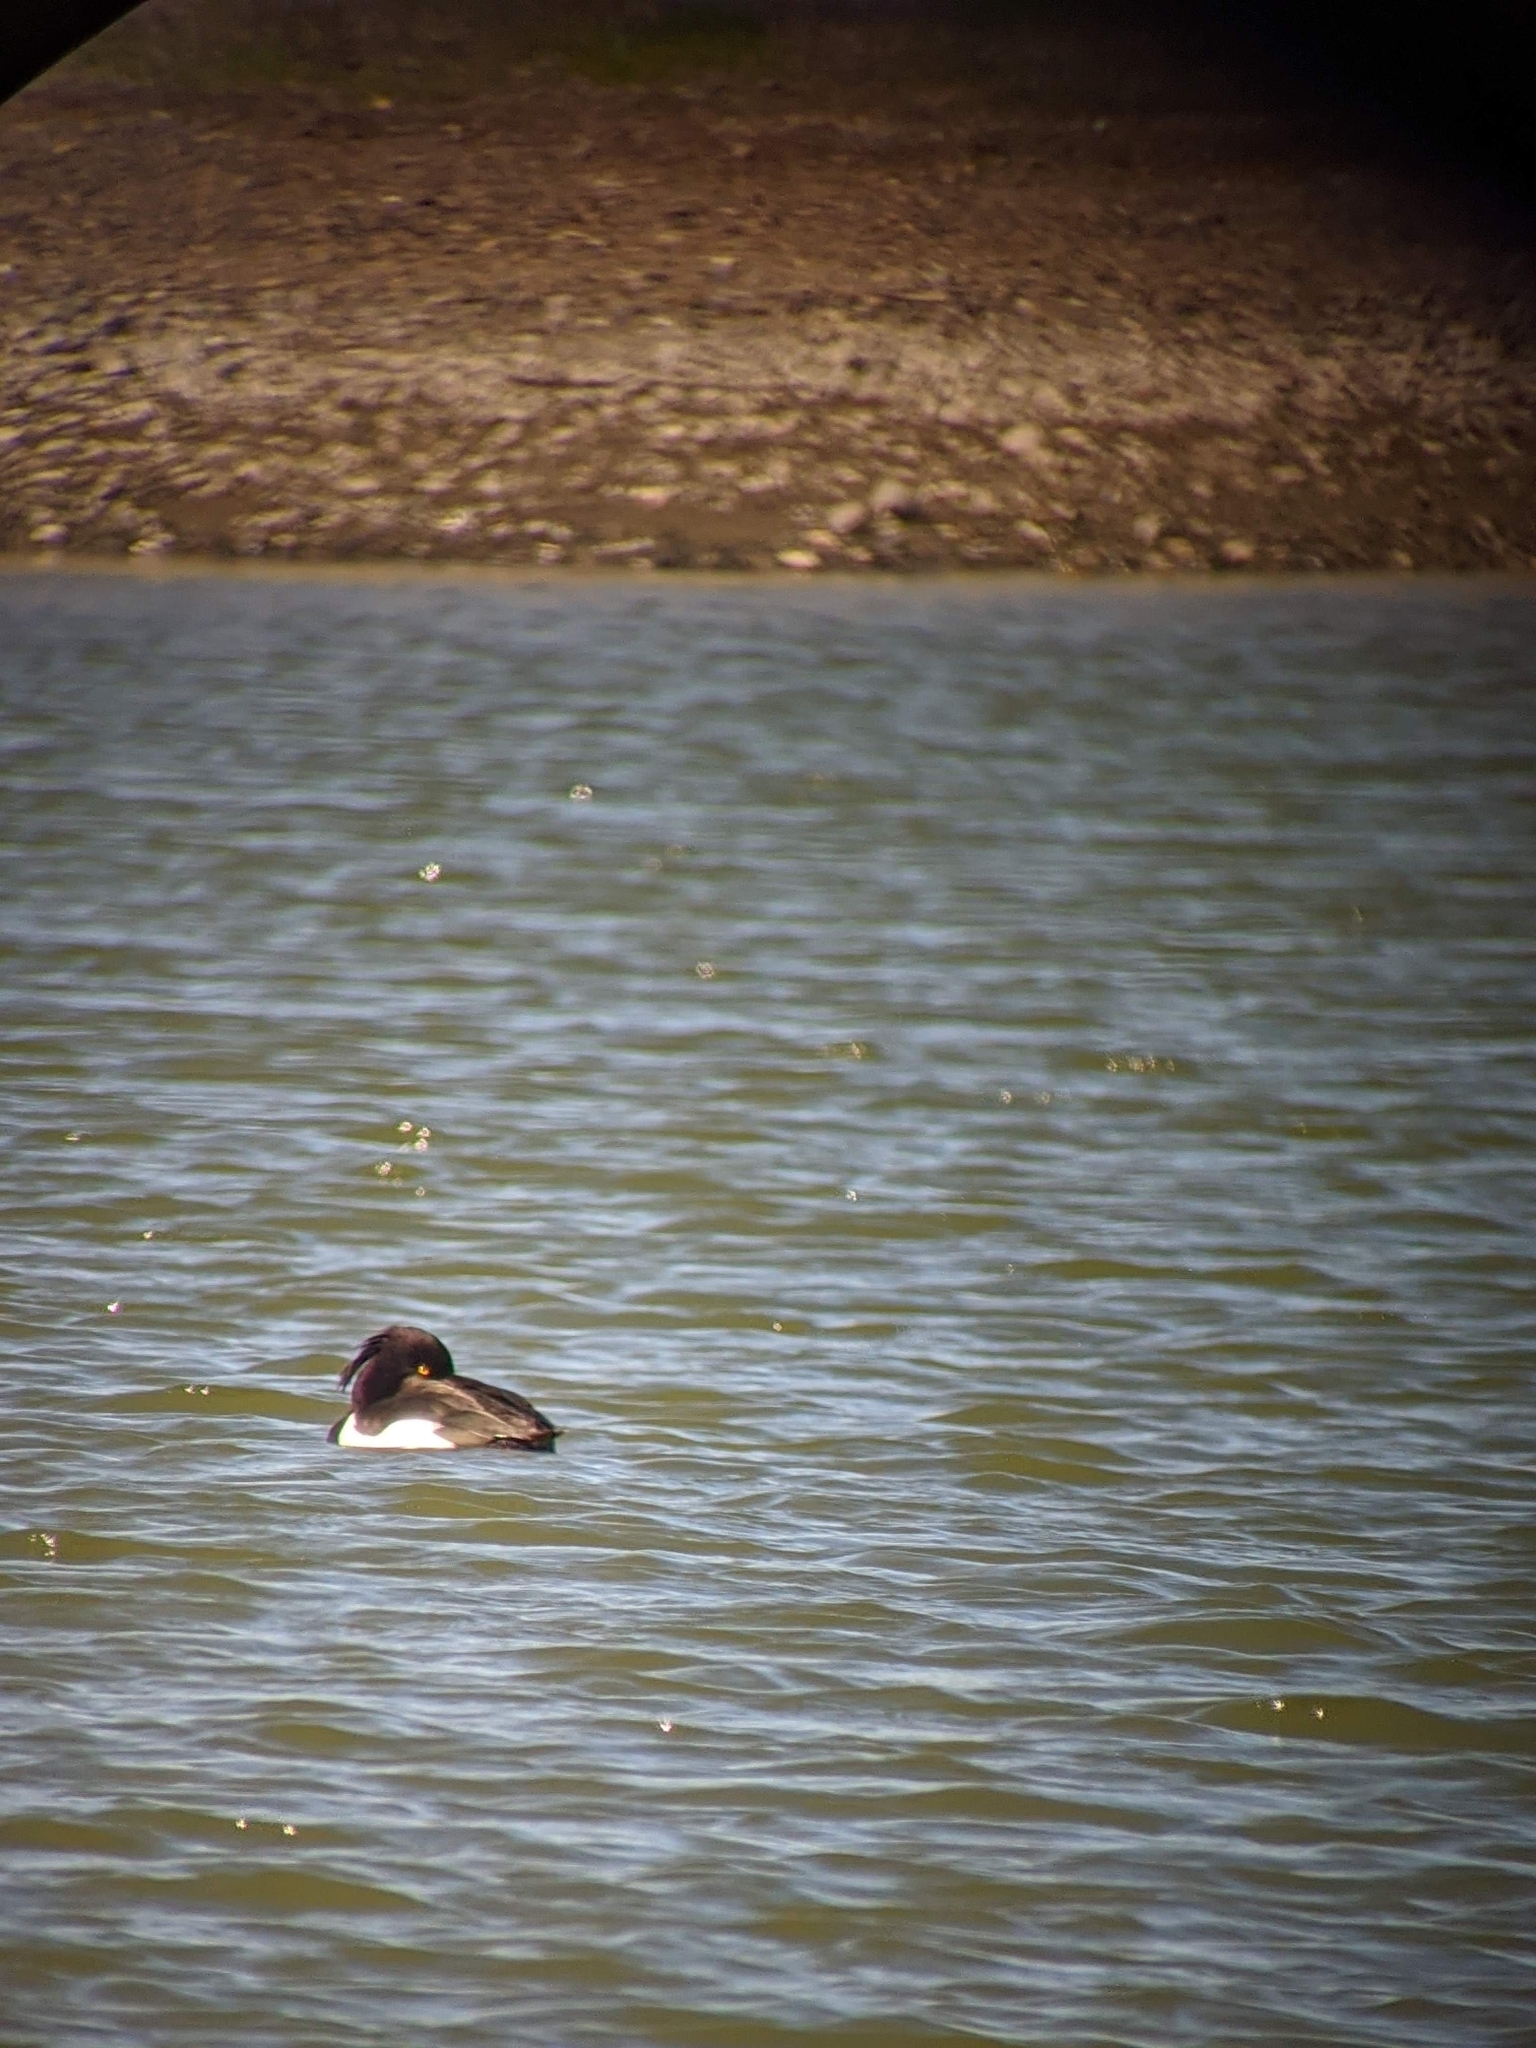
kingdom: Animalia
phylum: Chordata
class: Aves
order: Anseriformes
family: Anatidae
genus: Aythya
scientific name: Aythya fuligula
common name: Tufted duck
